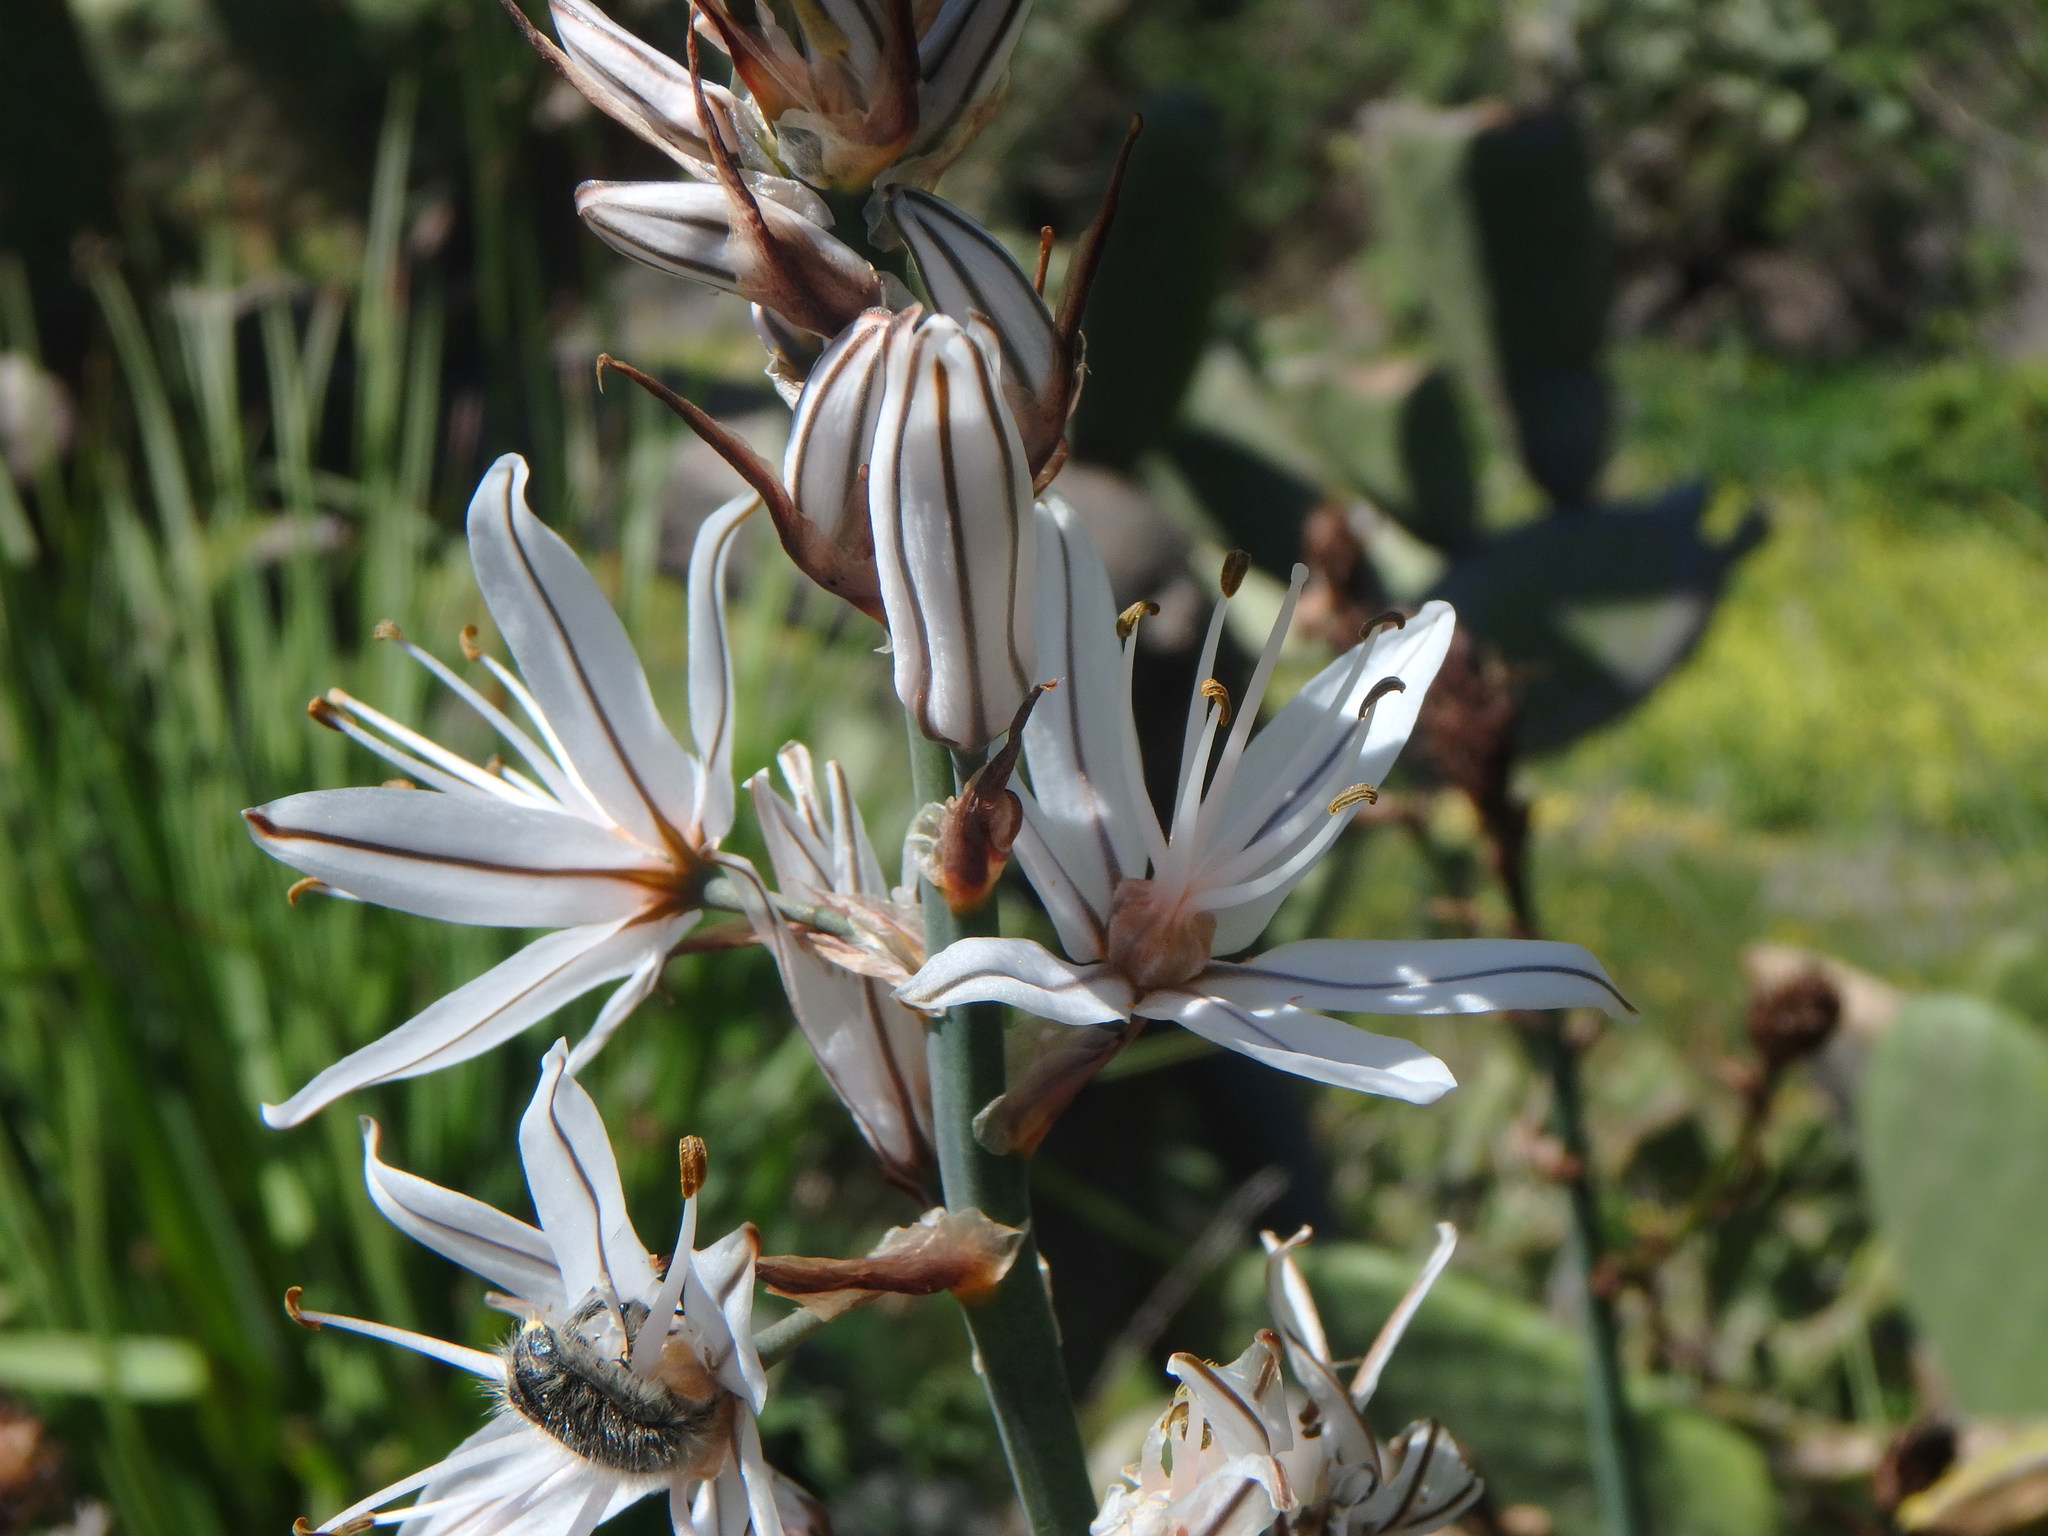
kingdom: Plantae
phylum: Tracheophyta
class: Liliopsida
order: Asparagales
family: Asphodelaceae
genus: Asphodelus
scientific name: Asphodelus ramosus
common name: Silverrod
